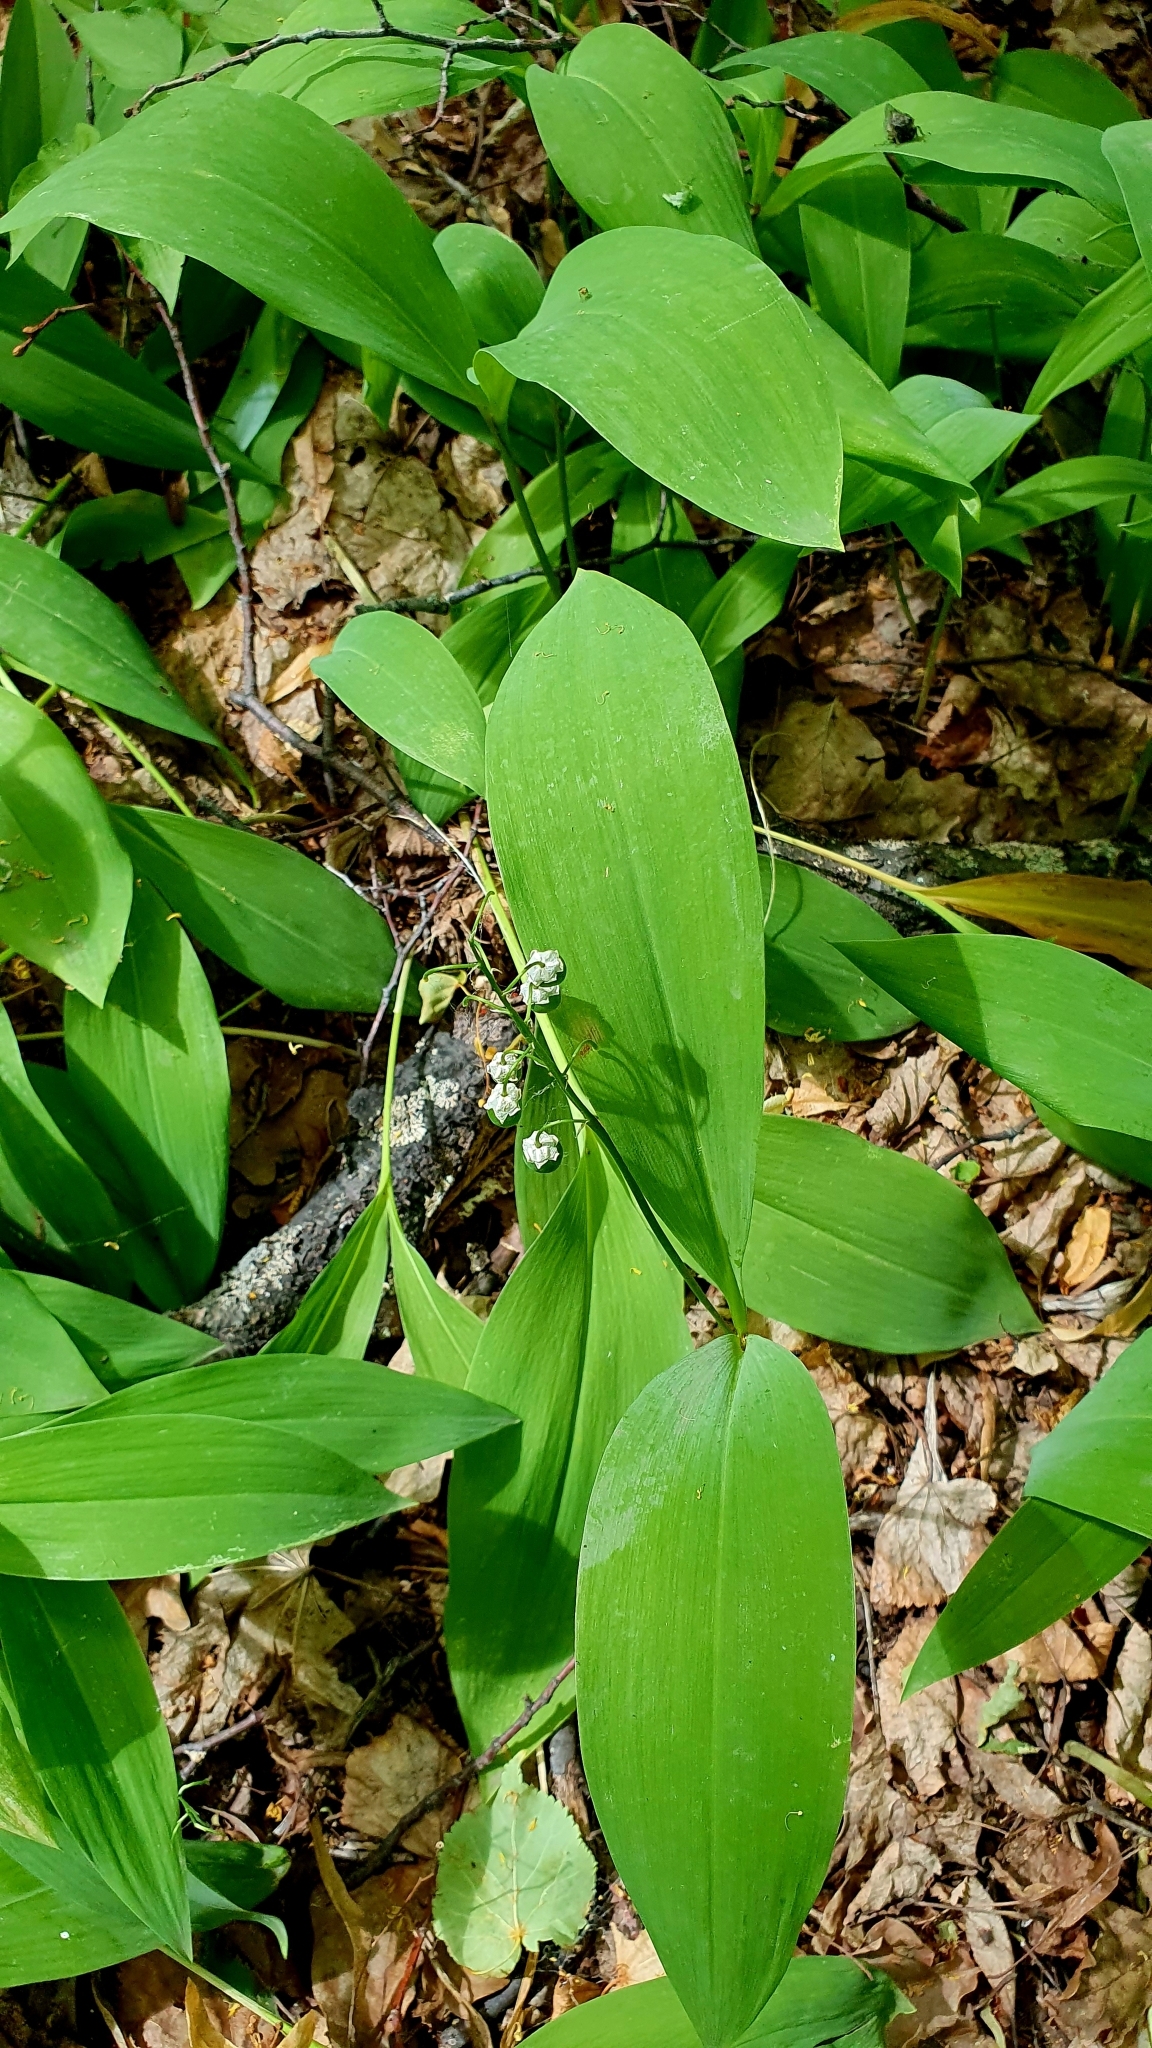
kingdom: Plantae
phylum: Tracheophyta
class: Liliopsida
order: Asparagales
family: Asparagaceae
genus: Convallaria
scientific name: Convallaria majalis
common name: Lily-of-the-valley
